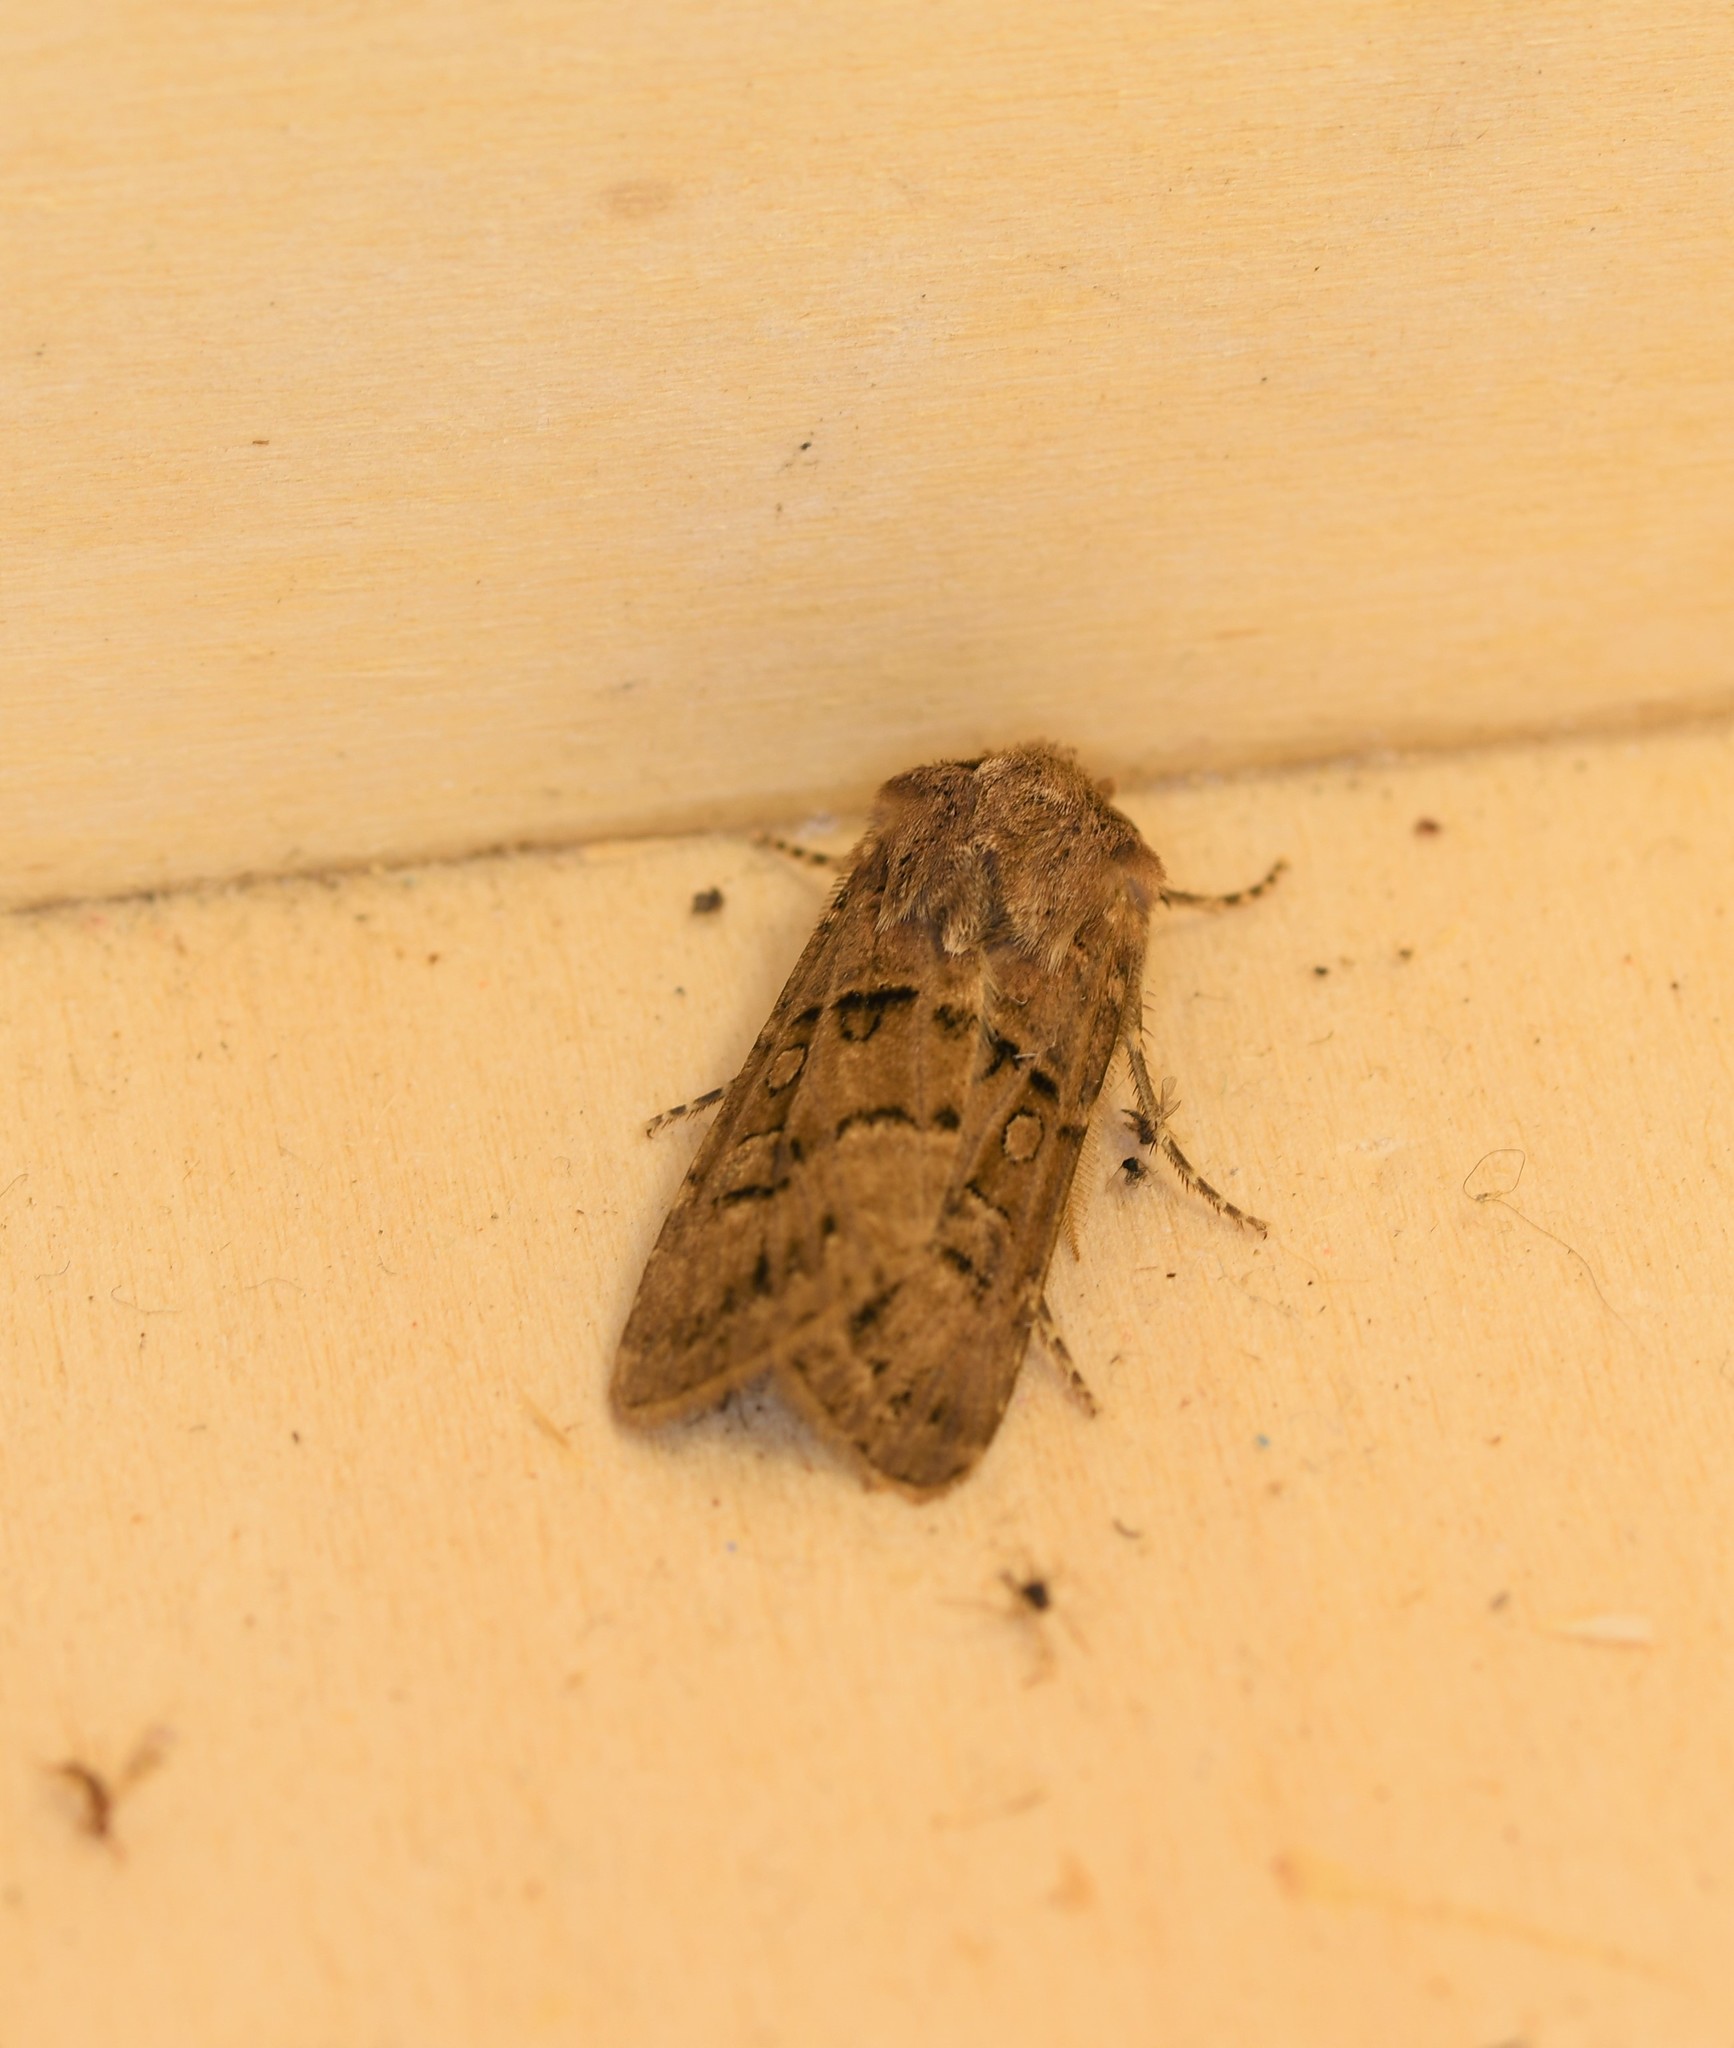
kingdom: Animalia
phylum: Arthropoda
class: Insecta
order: Lepidoptera
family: Noctuidae
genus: Agrotis
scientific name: Agrotis lata
